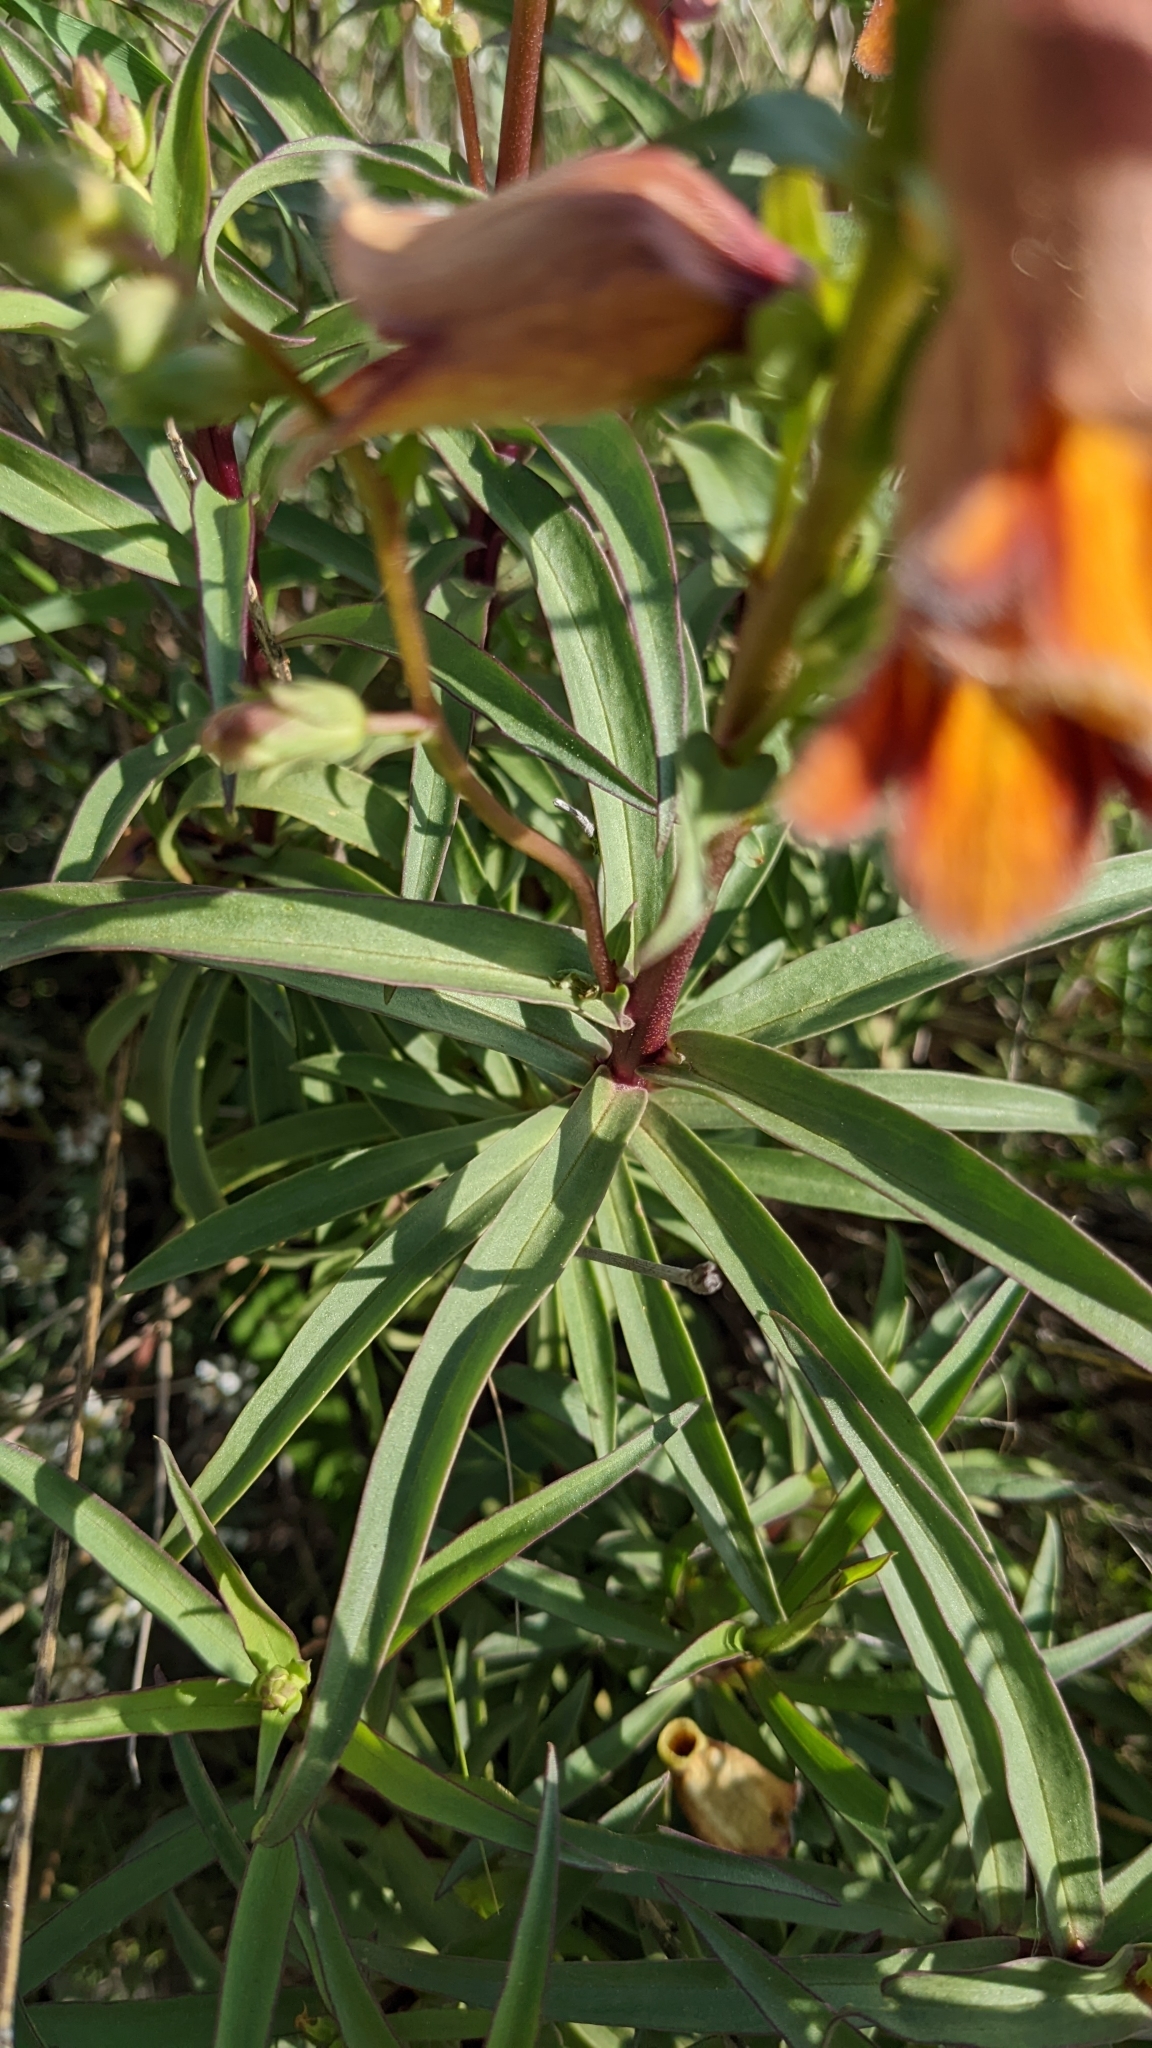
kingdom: Plantae
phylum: Tracheophyta
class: Magnoliopsida
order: Lamiales
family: Plantaginaceae
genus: Digitalis
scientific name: Digitalis obscura
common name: Willow-leaf foxglove
